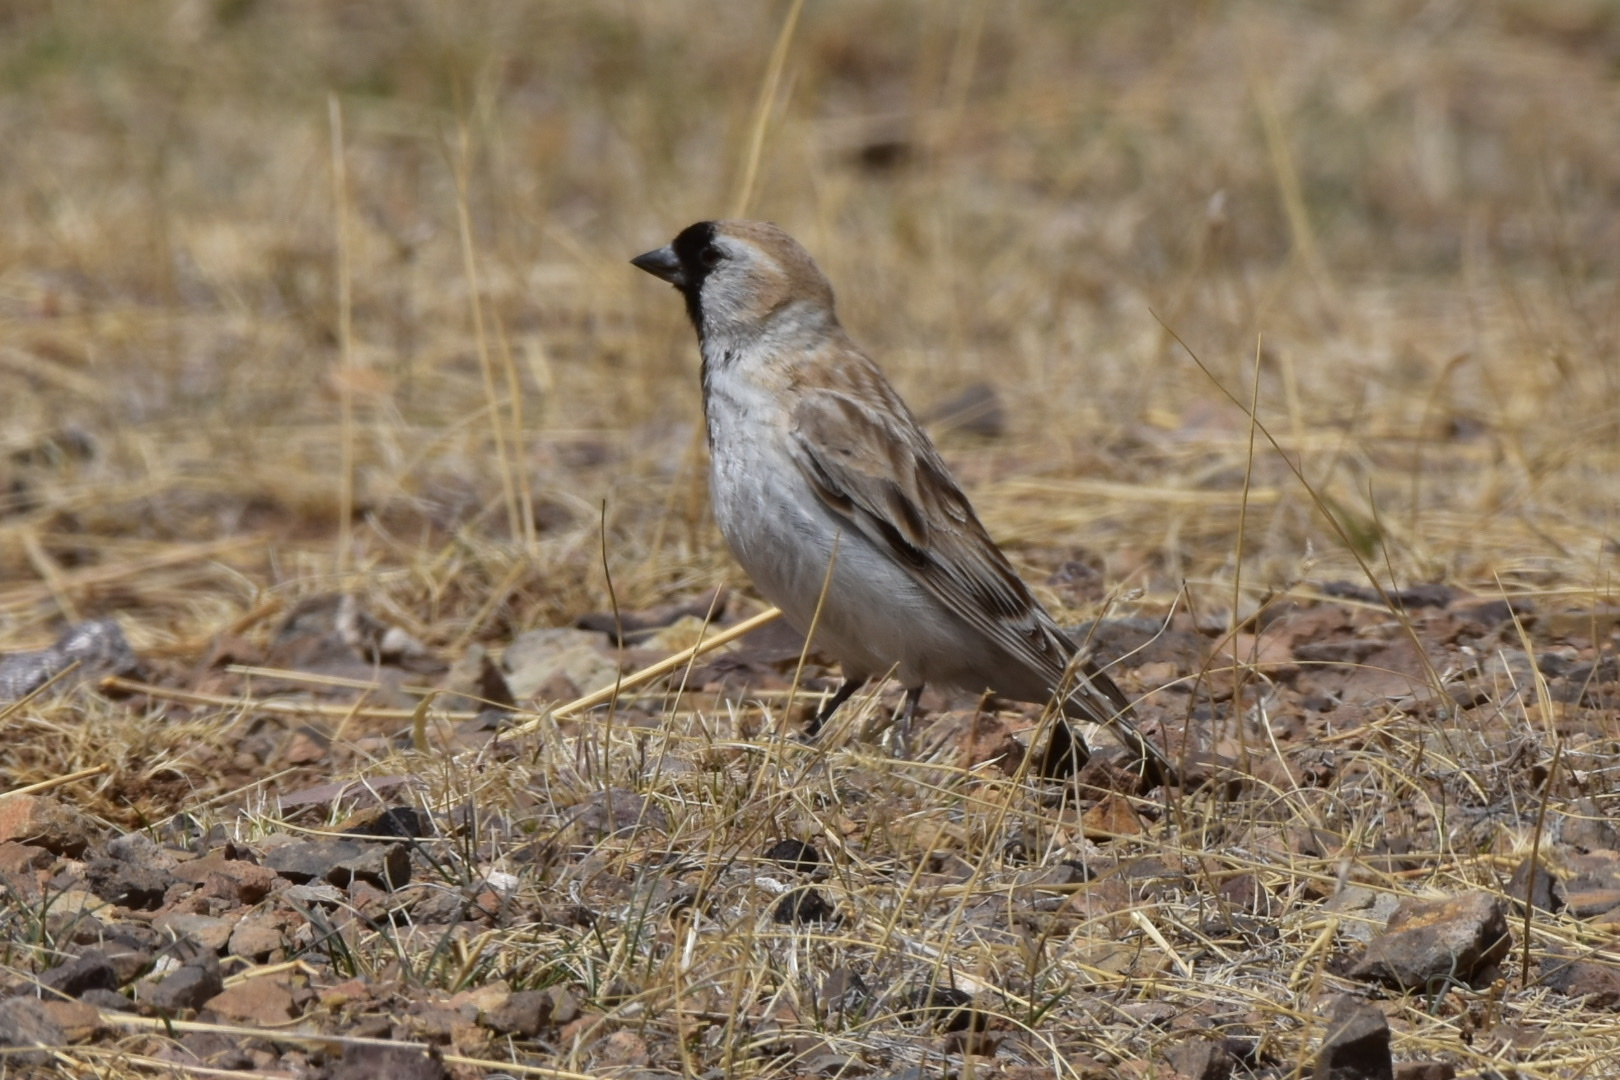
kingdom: Animalia
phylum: Chordata
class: Aves
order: Passeriformes
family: Passeridae
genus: Pyrgilauda
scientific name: Pyrgilauda davidiana
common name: Pere david's snowfinch
